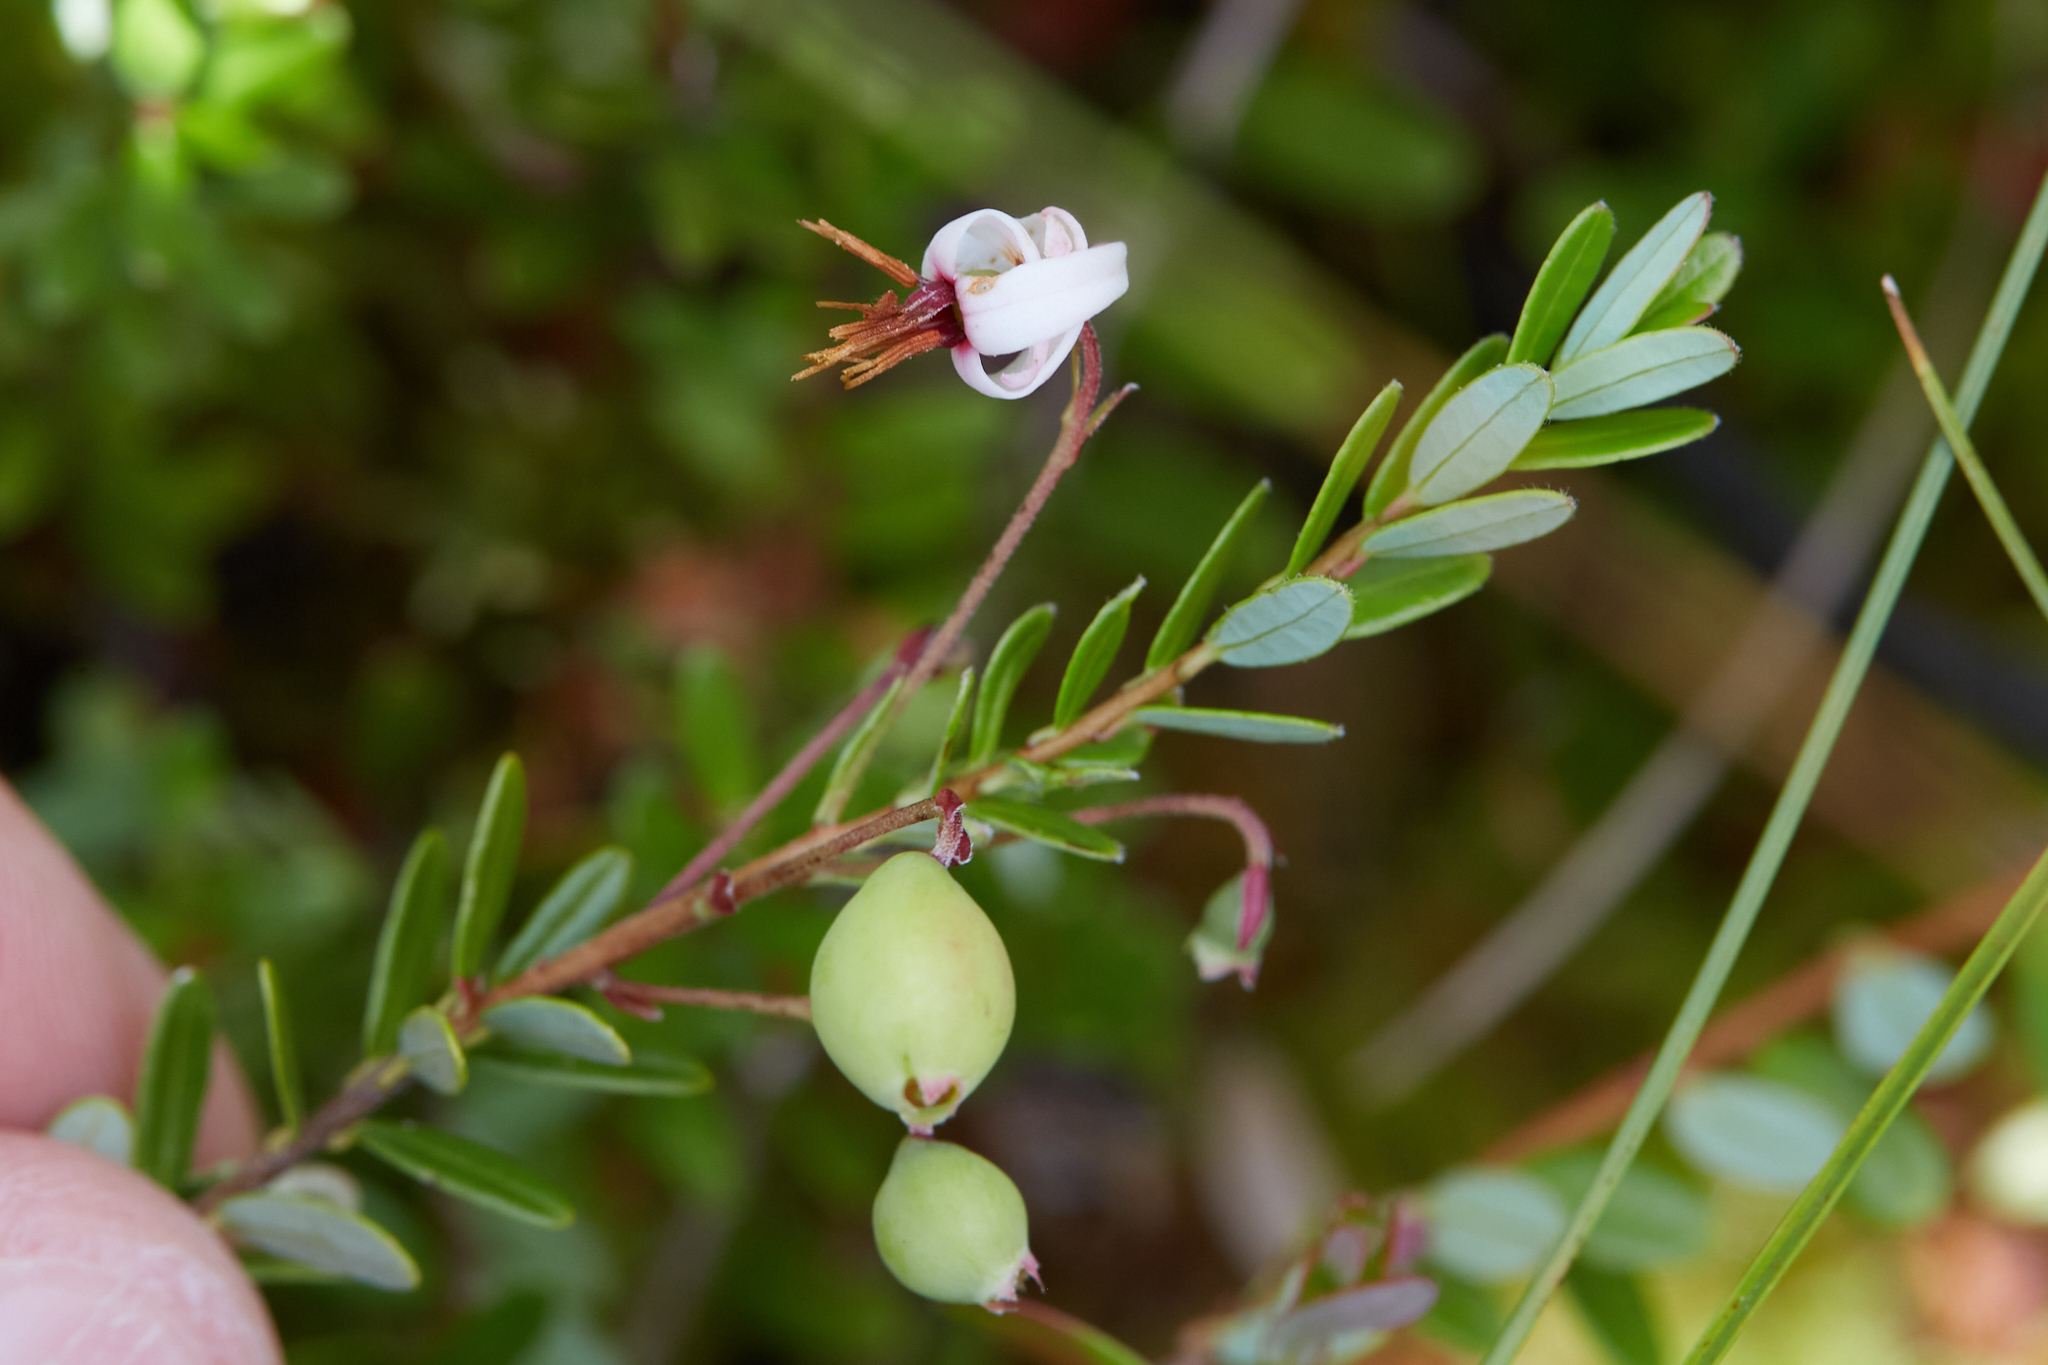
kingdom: Plantae
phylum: Tracheophyta
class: Magnoliopsida
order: Ericales
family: Ericaceae
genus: Vaccinium
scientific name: Vaccinium macrocarpon
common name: American cranberry
